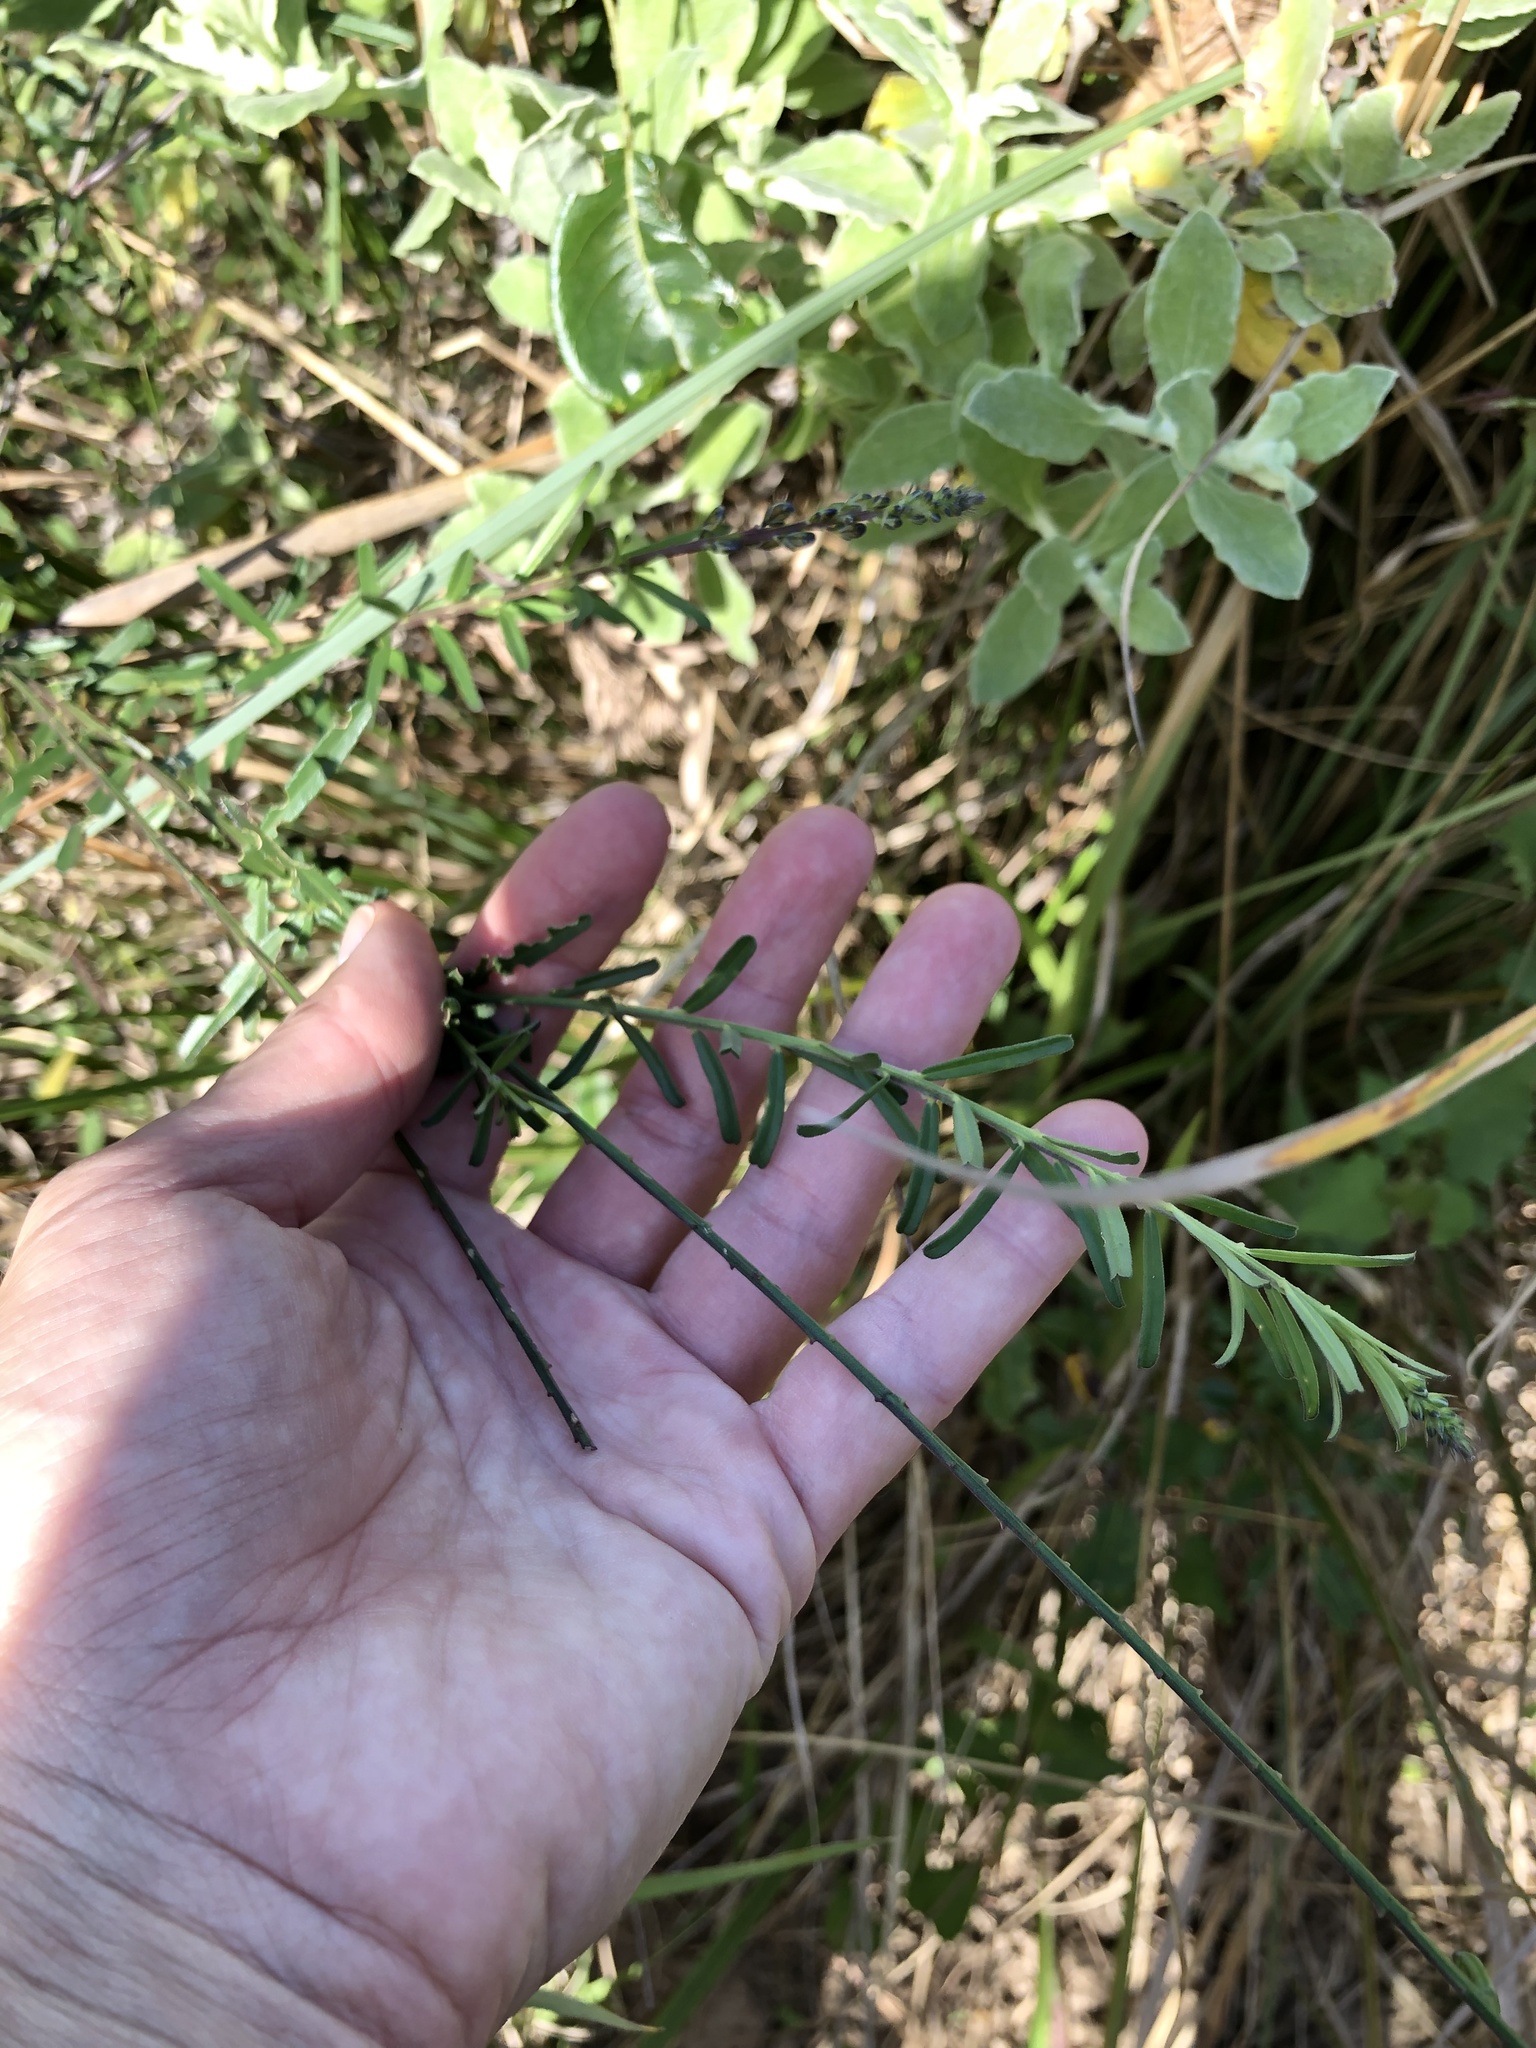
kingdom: Plantae
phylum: Tracheophyta
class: Magnoliopsida
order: Fabales
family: Polygalaceae
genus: Polygala
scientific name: Polygala hottentotta
